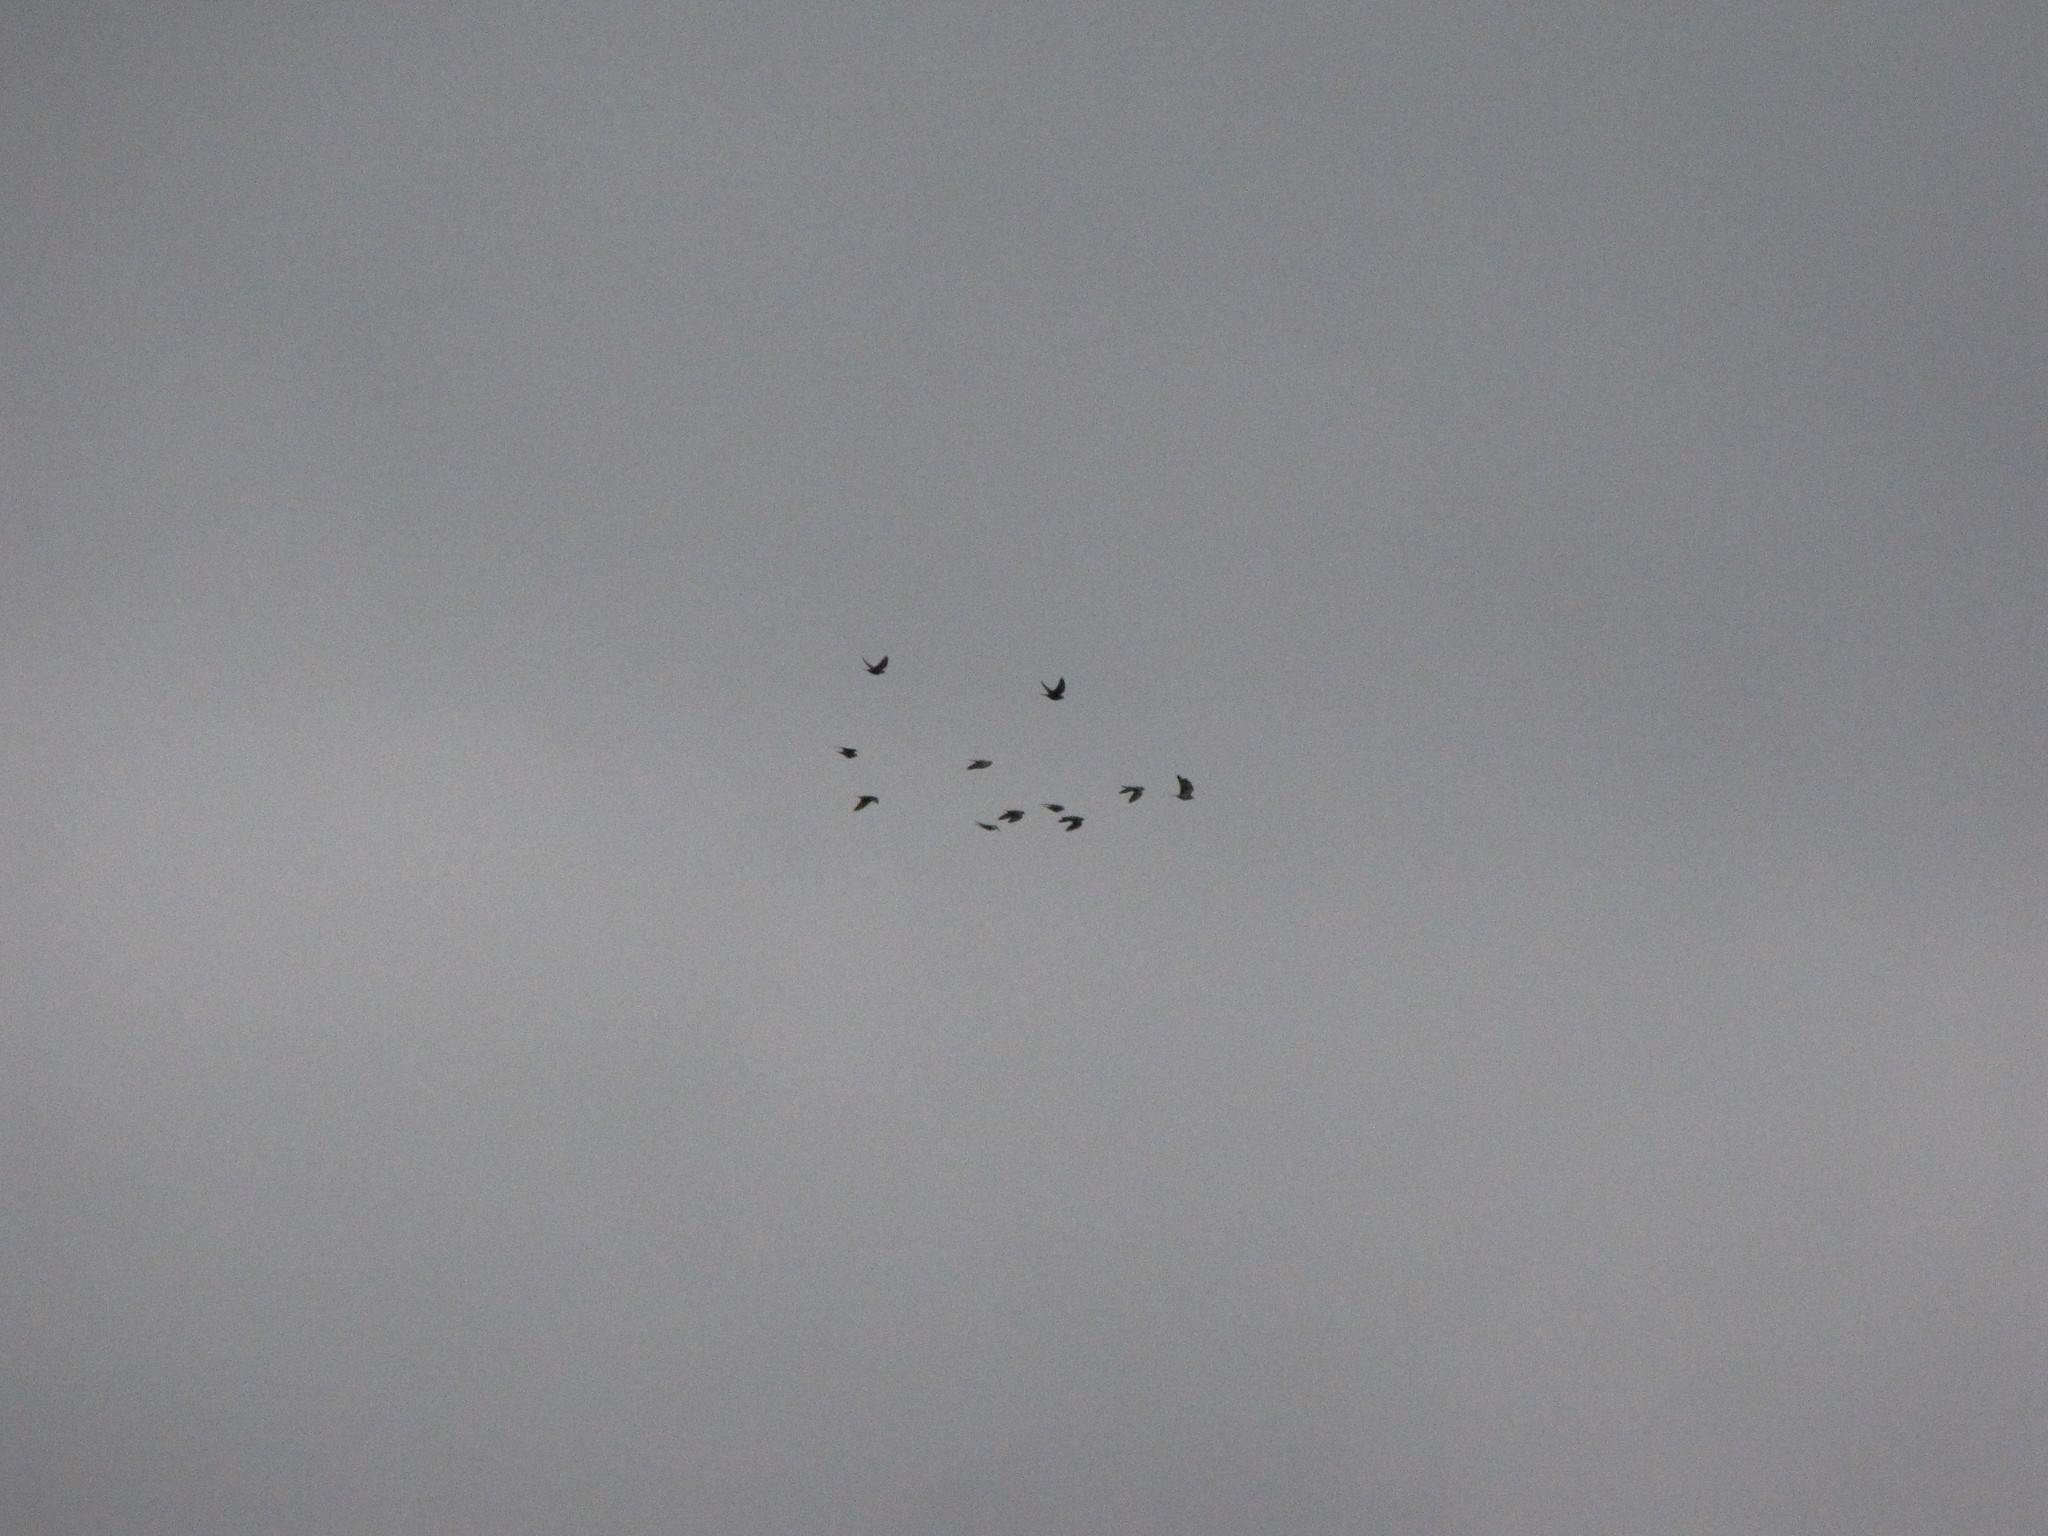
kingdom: Animalia
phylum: Chordata
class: Aves
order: Columbiformes
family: Columbidae
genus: Columba
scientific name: Columba livia
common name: Rock pigeon
